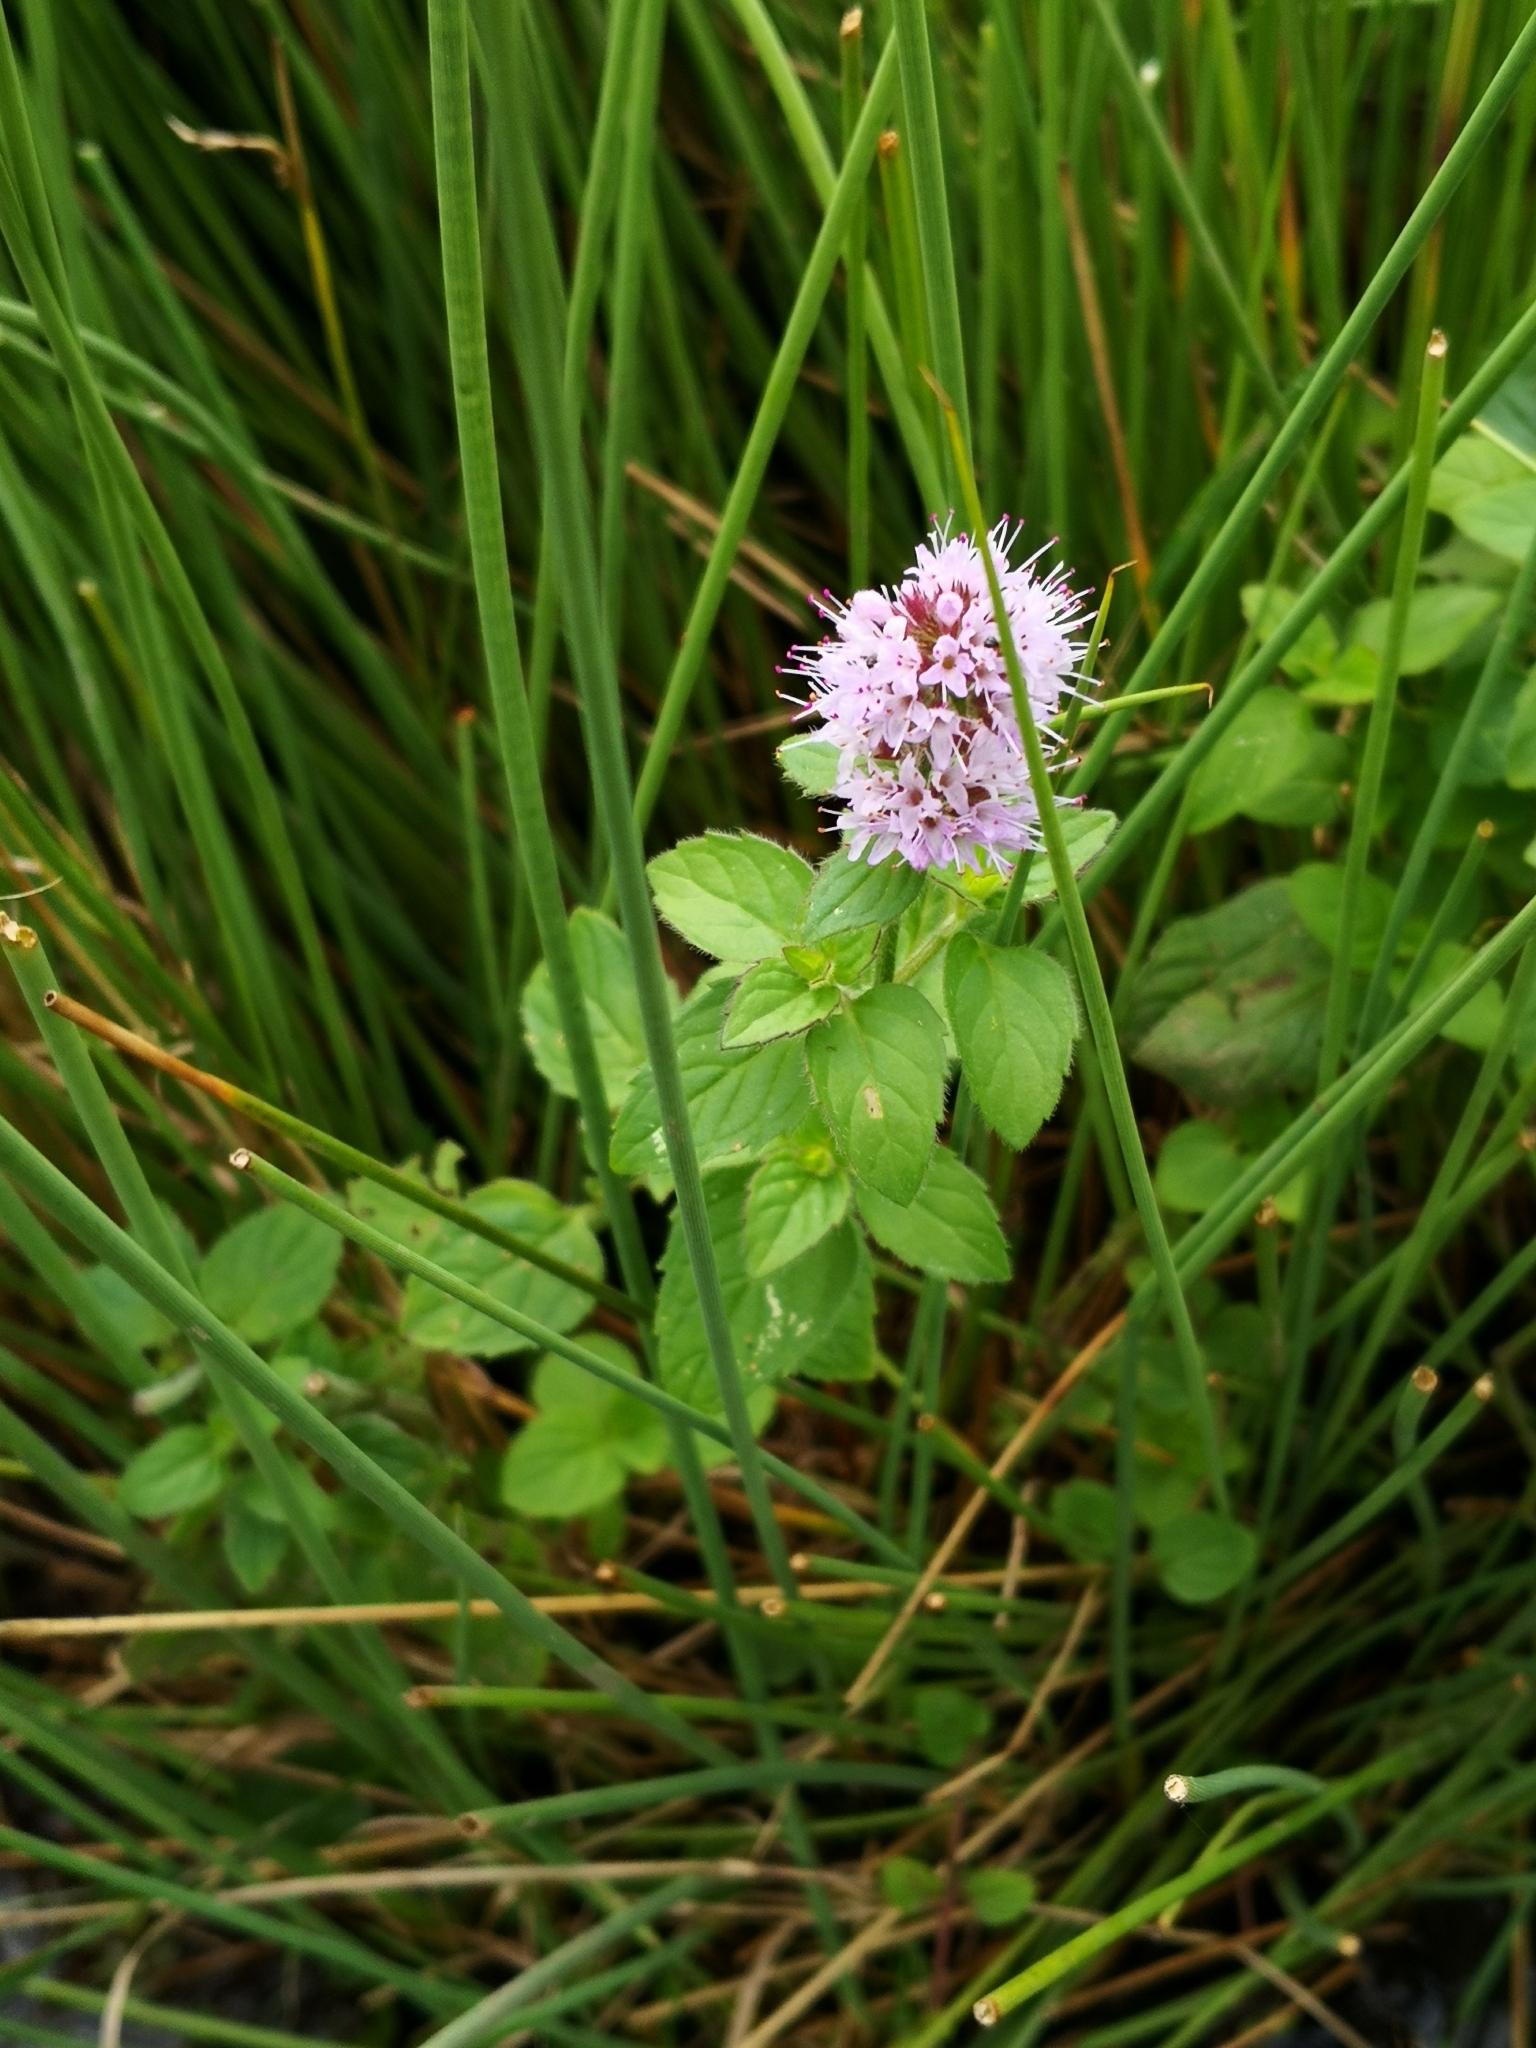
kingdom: Plantae
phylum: Tracheophyta
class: Magnoliopsida
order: Lamiales
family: Lamiaceae
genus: Mentha
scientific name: Mentha aquatica
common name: Water mint
